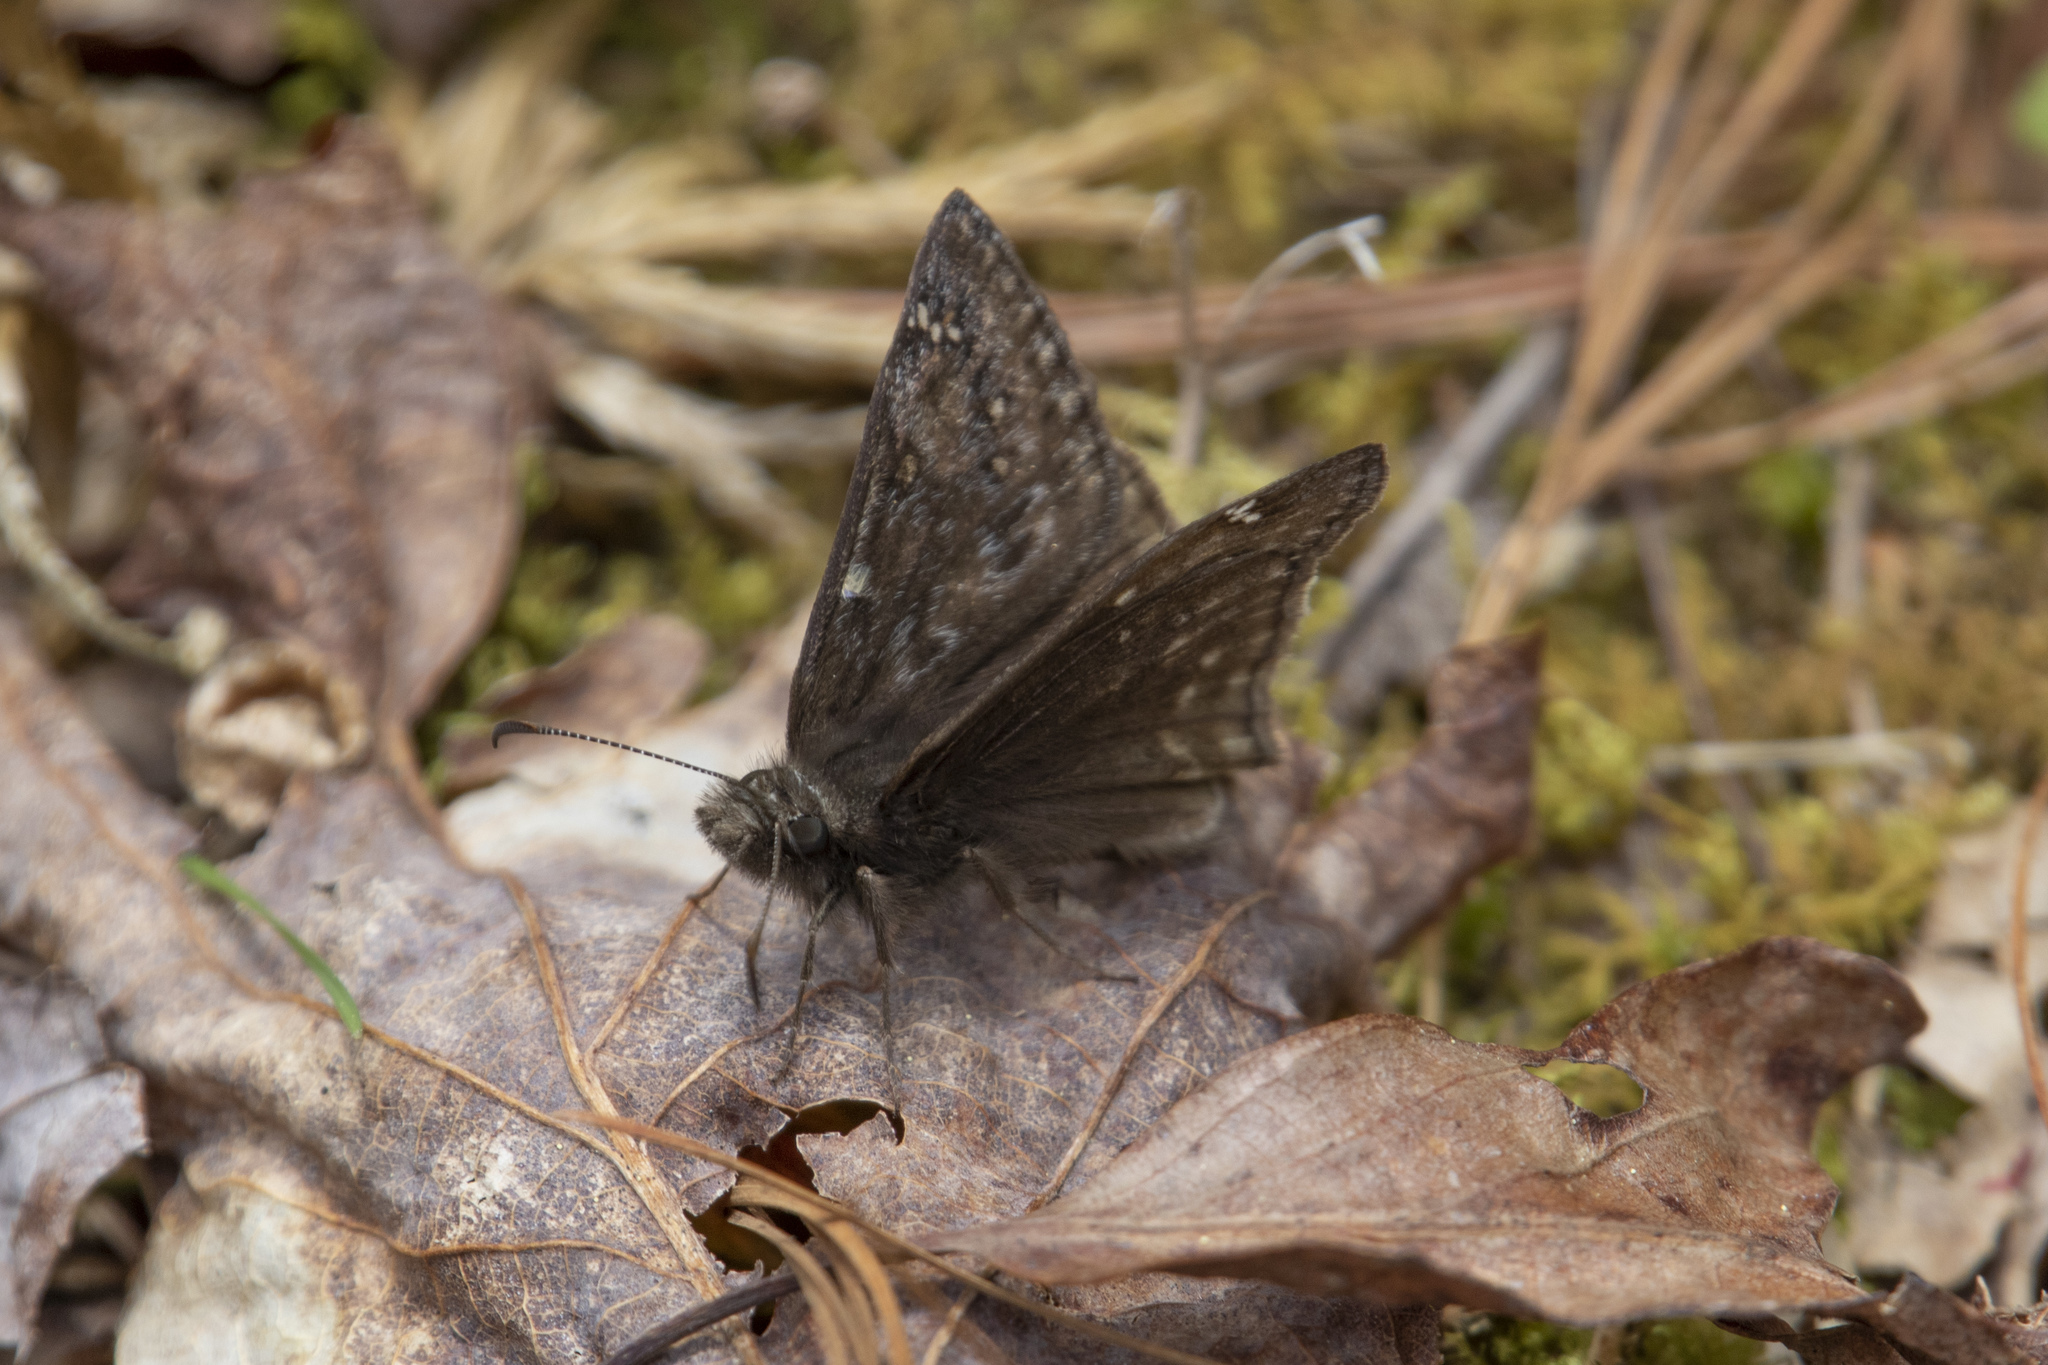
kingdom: Animalia
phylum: Arthropoda
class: Insecta
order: Lepidoptera
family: Hesperiidae
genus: Erynnis
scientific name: Erynnis juvenalis
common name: Juvenal's duskywing
